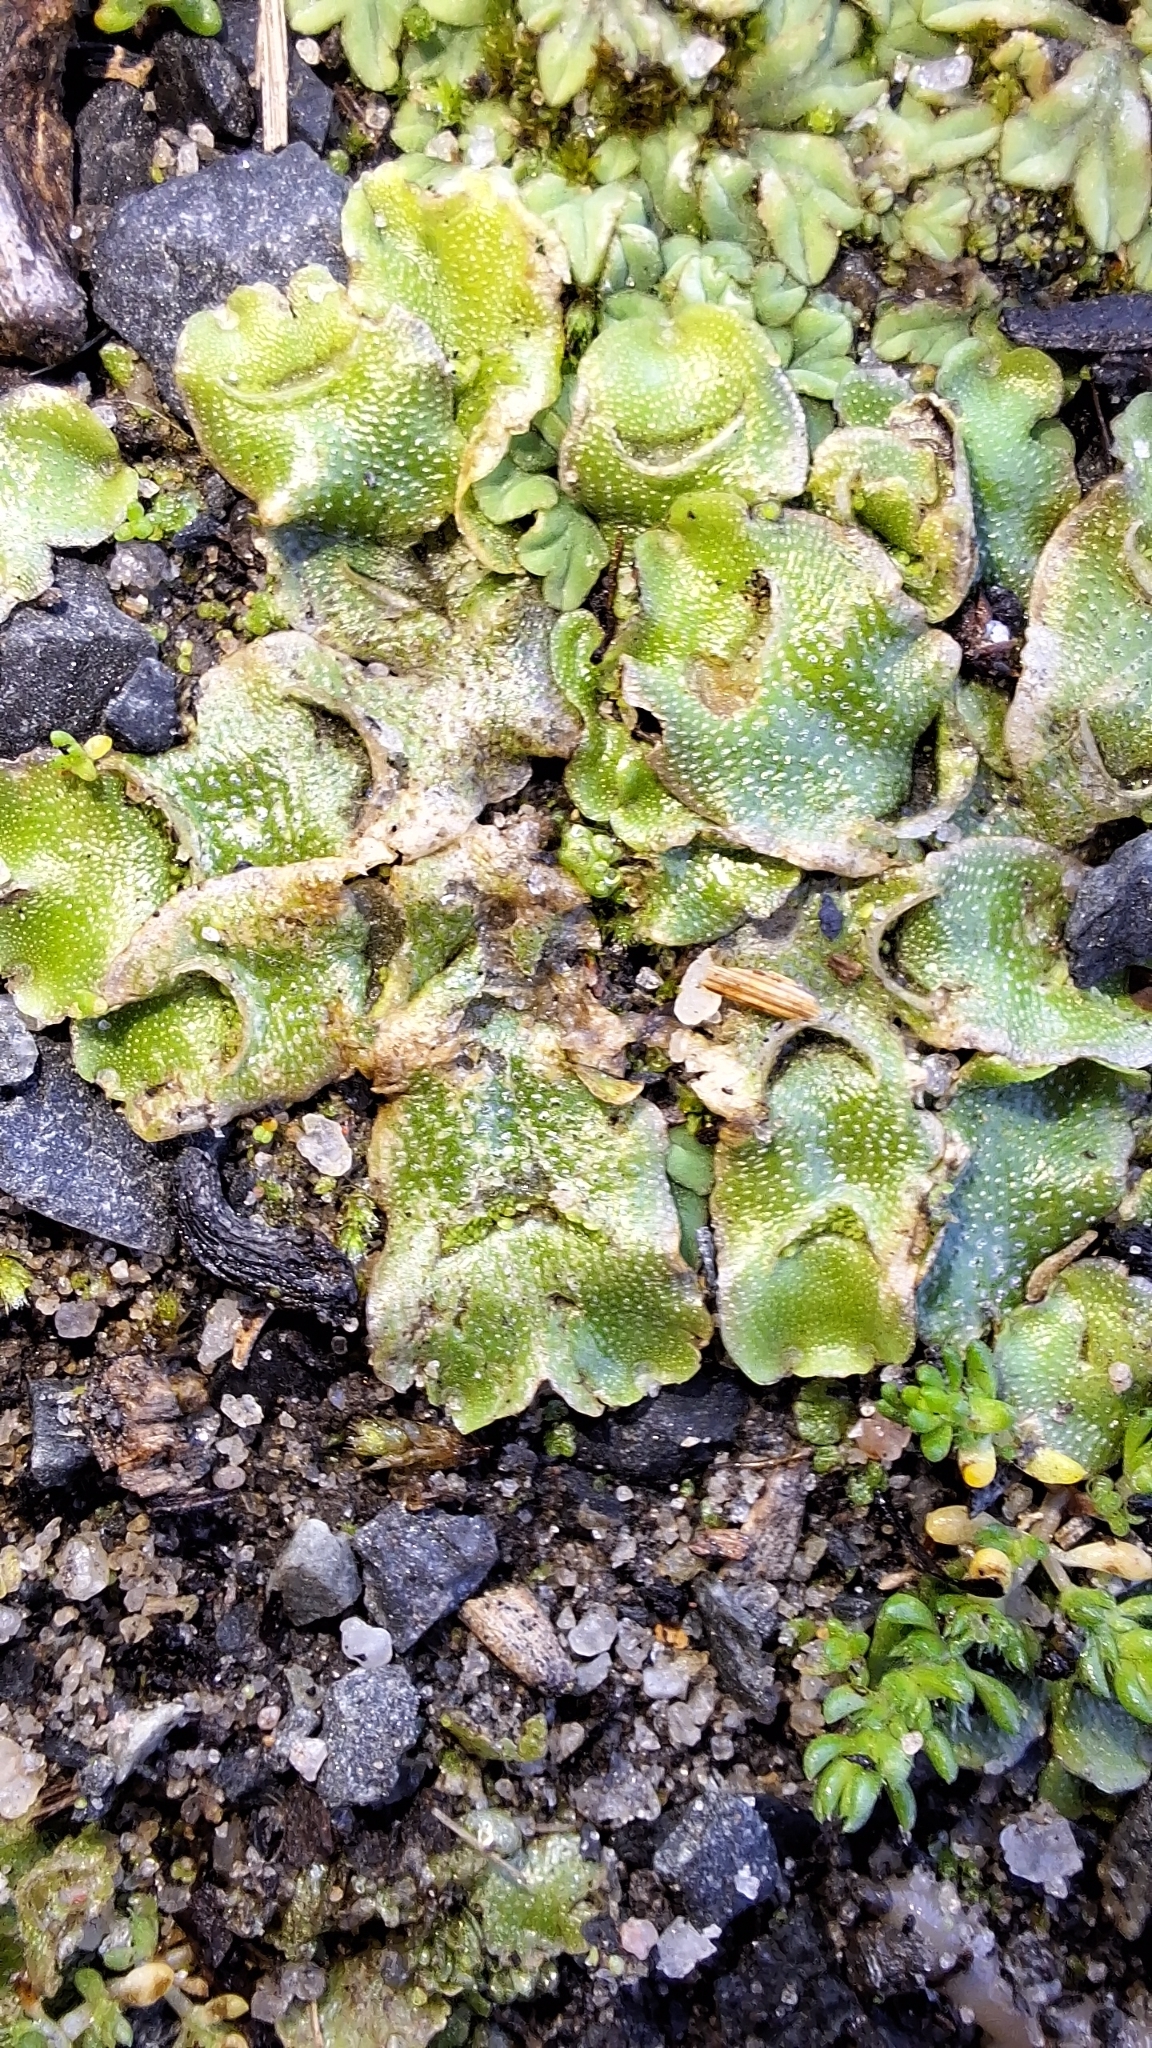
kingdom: Plantae
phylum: Marchantiophyta
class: Marchantiopsida
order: Lunulariales
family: Lunulariaceae
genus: Lunularia
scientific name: Lunularia cruciata
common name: Crescent-cup liverwort
